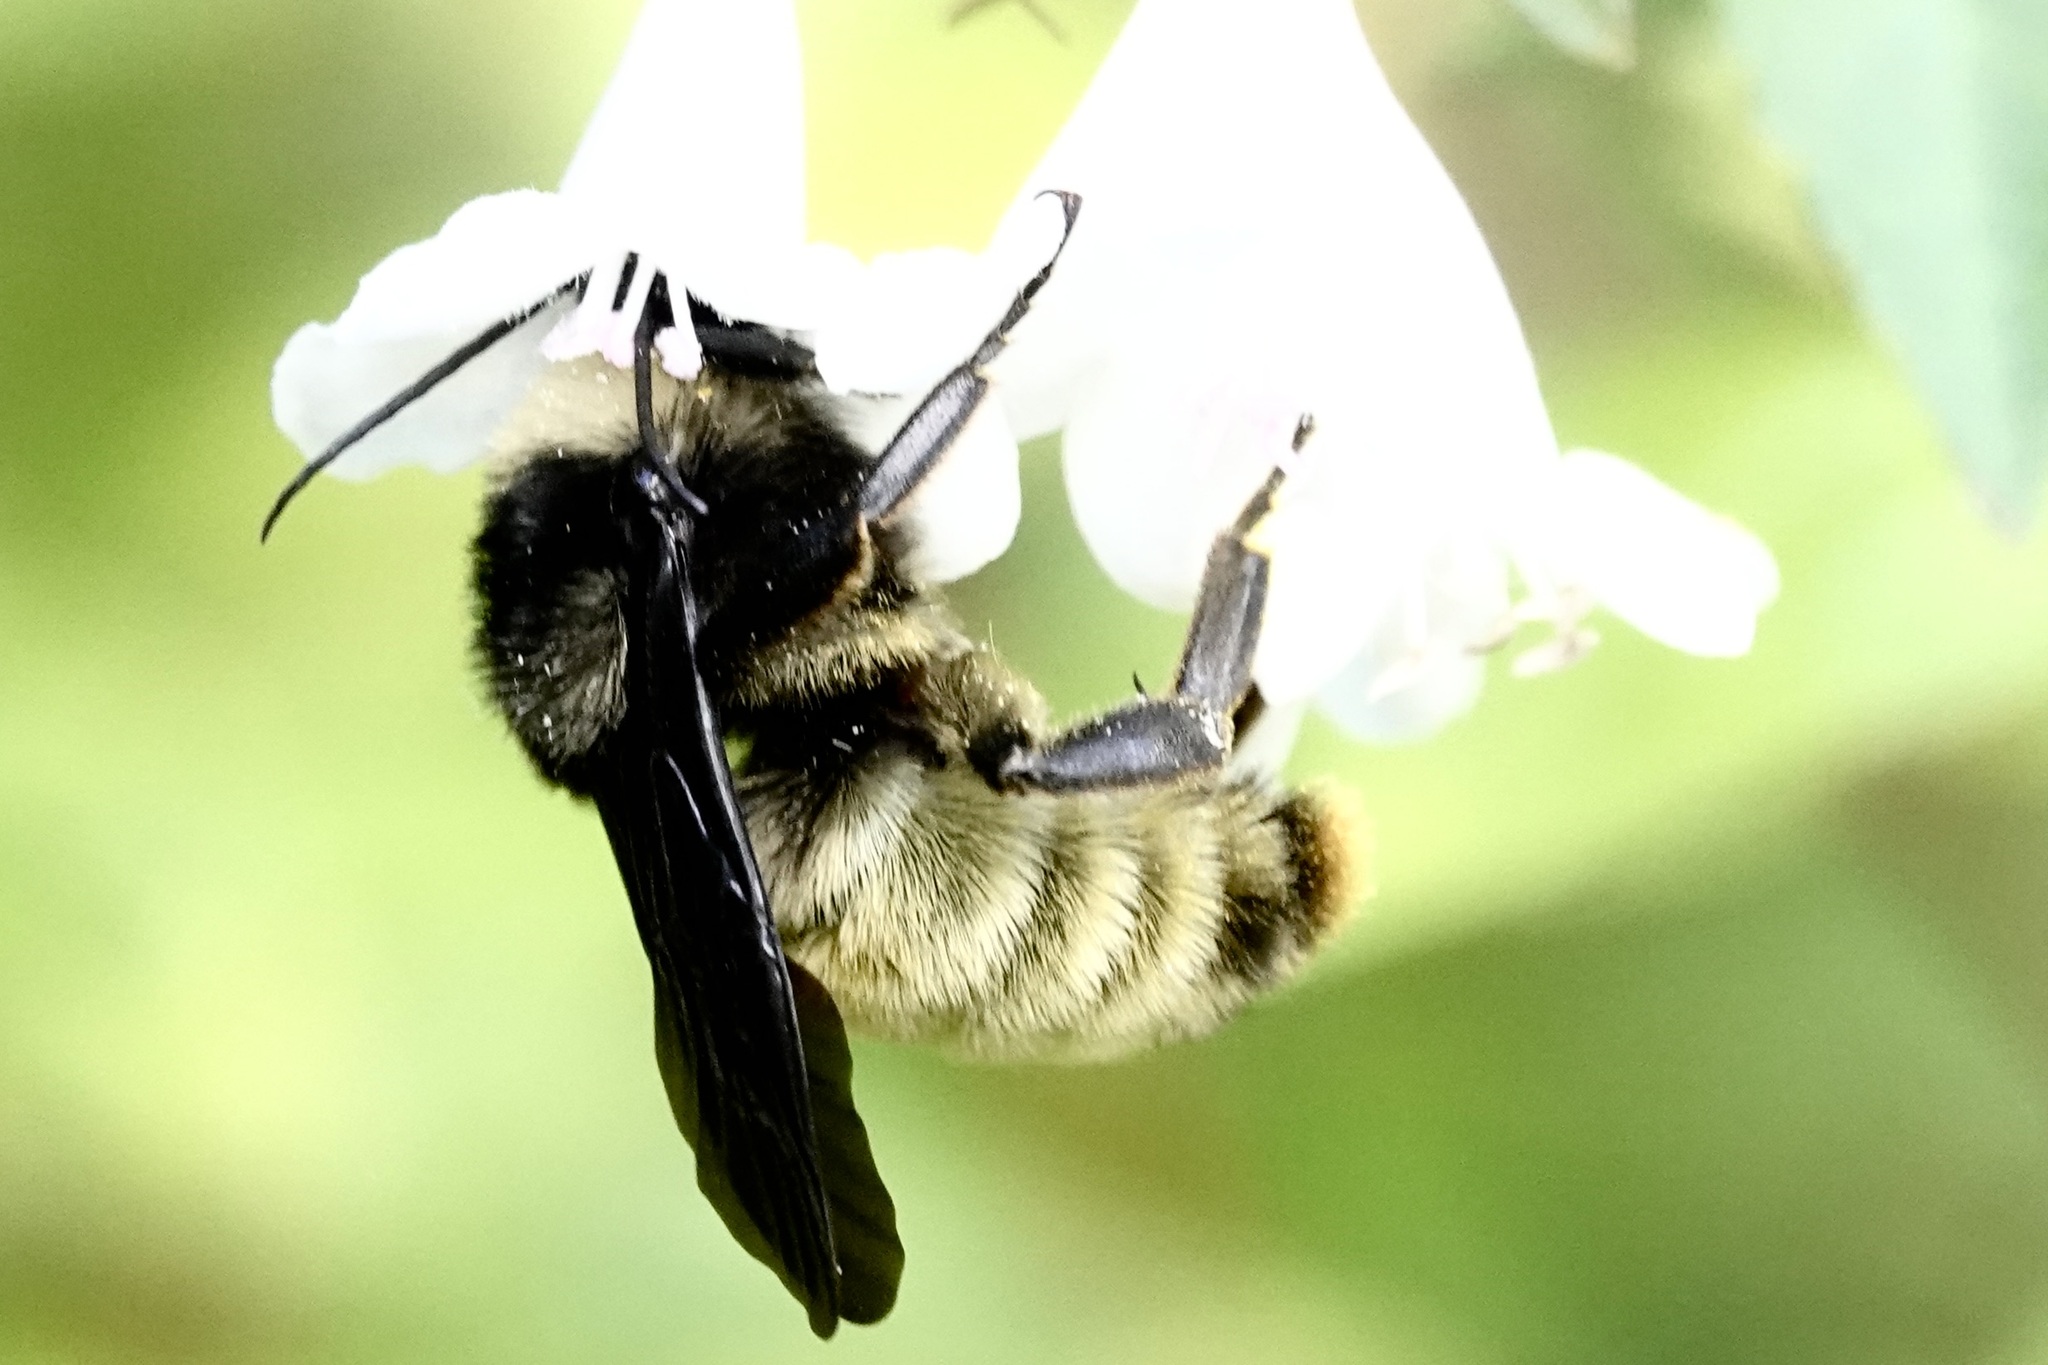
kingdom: Animalia
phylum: Arthropoda
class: Insecta
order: Hymenoptera
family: Apidae
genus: Bombus
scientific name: Bombus pensylvanicus
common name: Bumble bee
